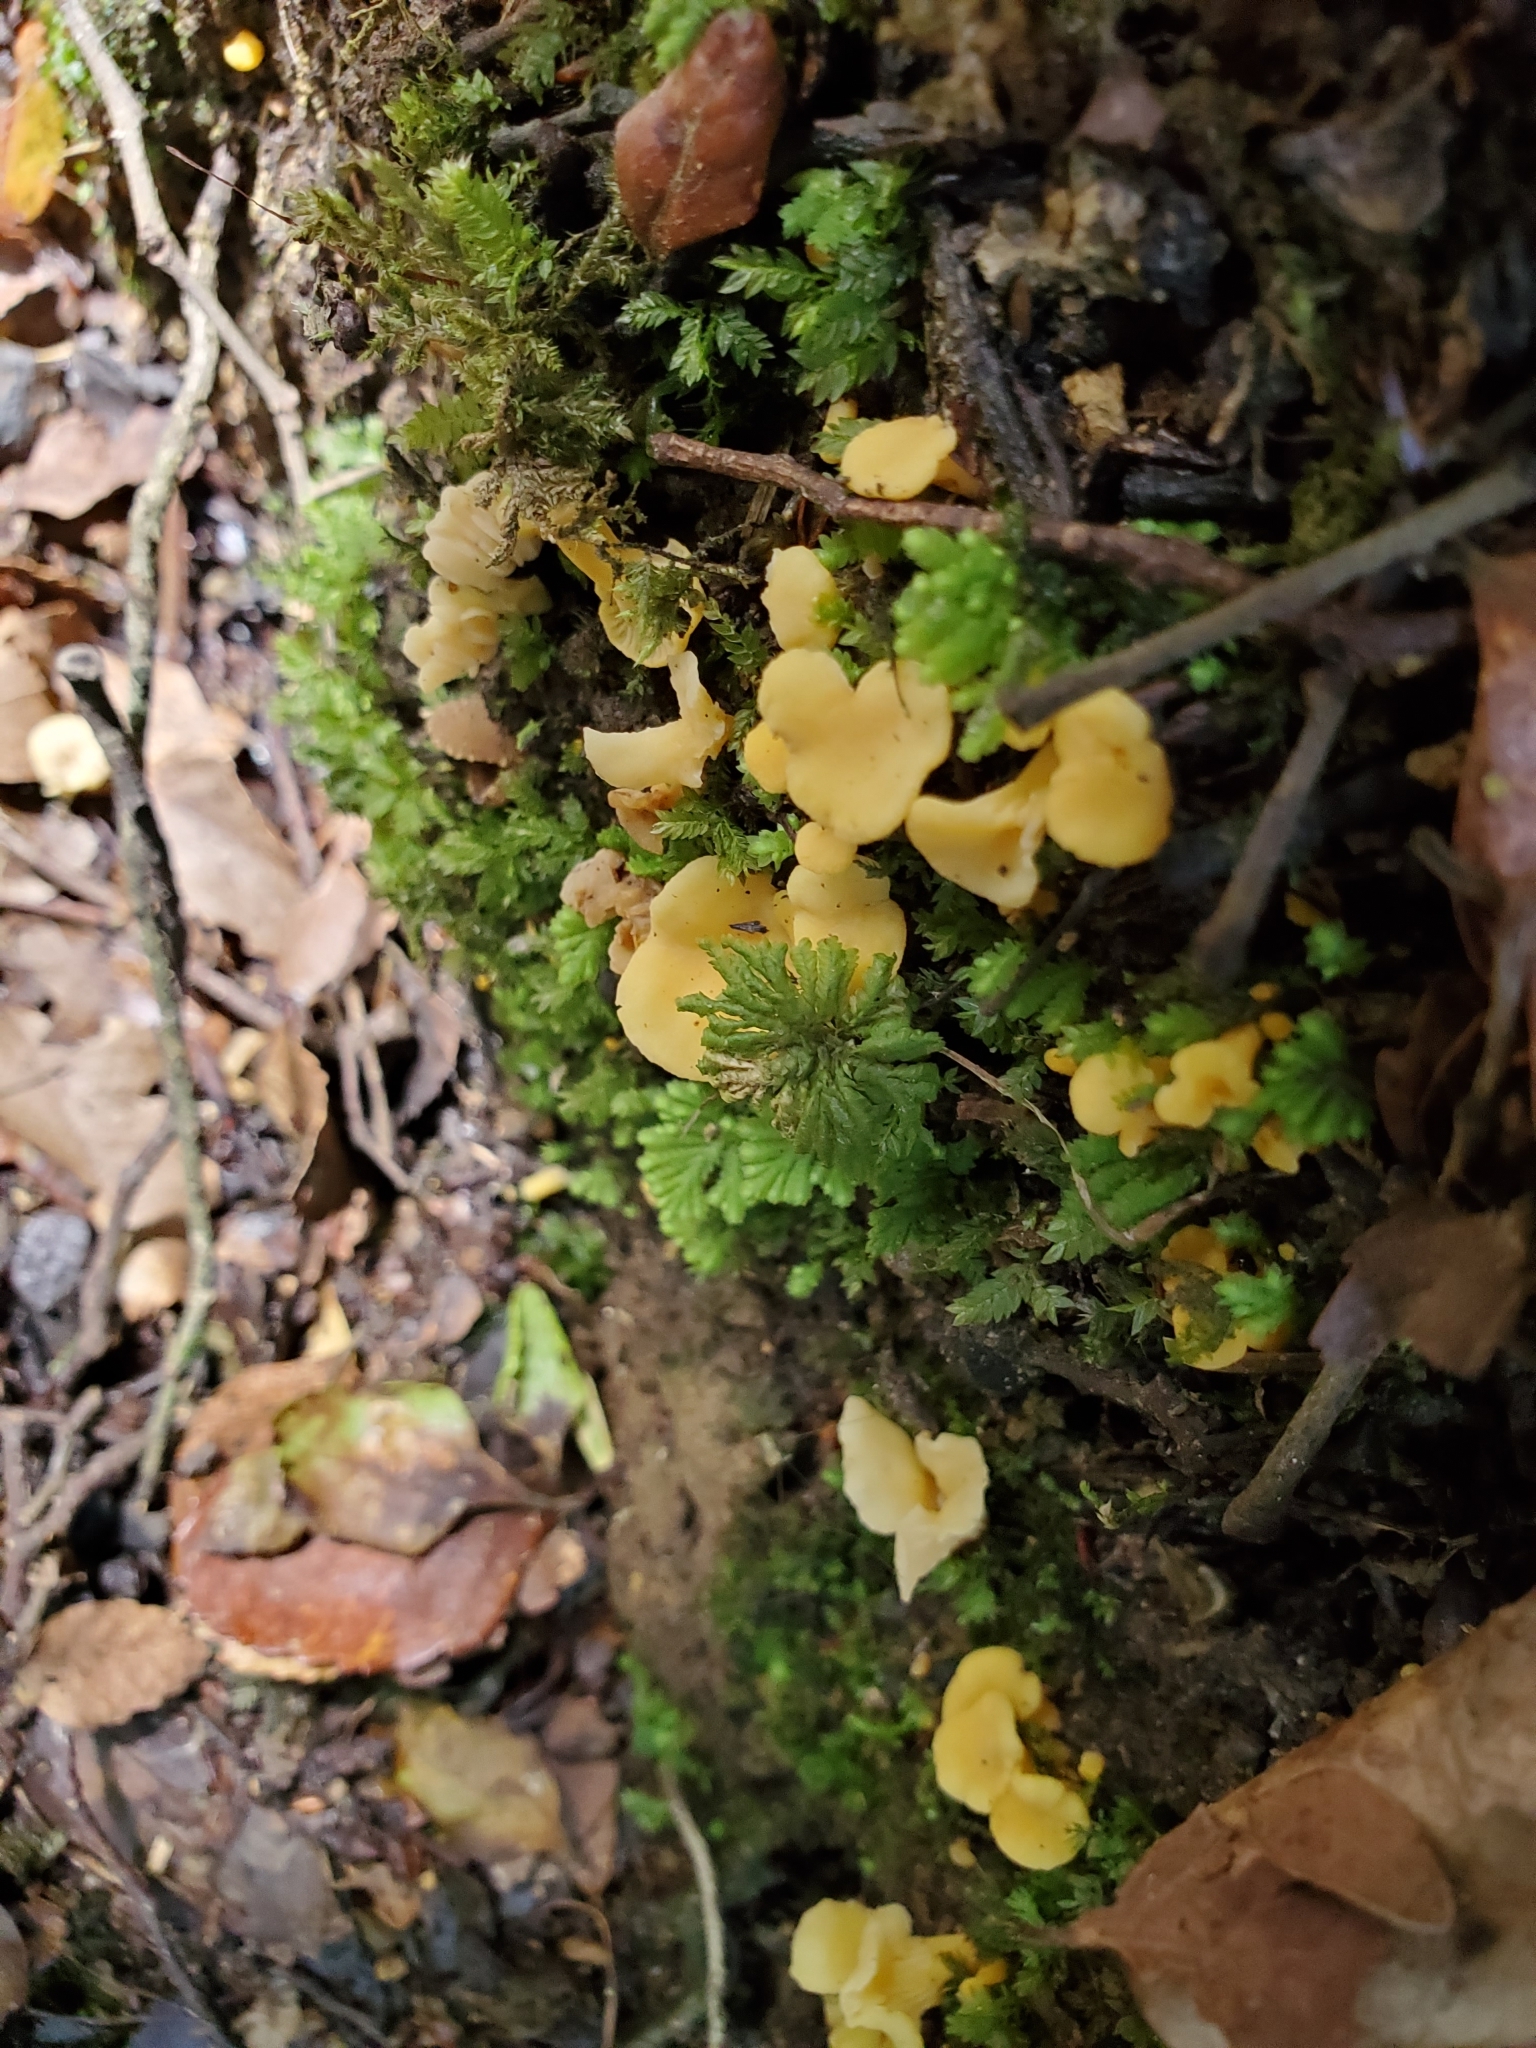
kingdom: Fungi
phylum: Basidiomycota
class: Agaricomycetes
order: Cantharellales
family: Hydnaceae
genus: Cantharellus
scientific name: Cantharellus wellingtonensis
